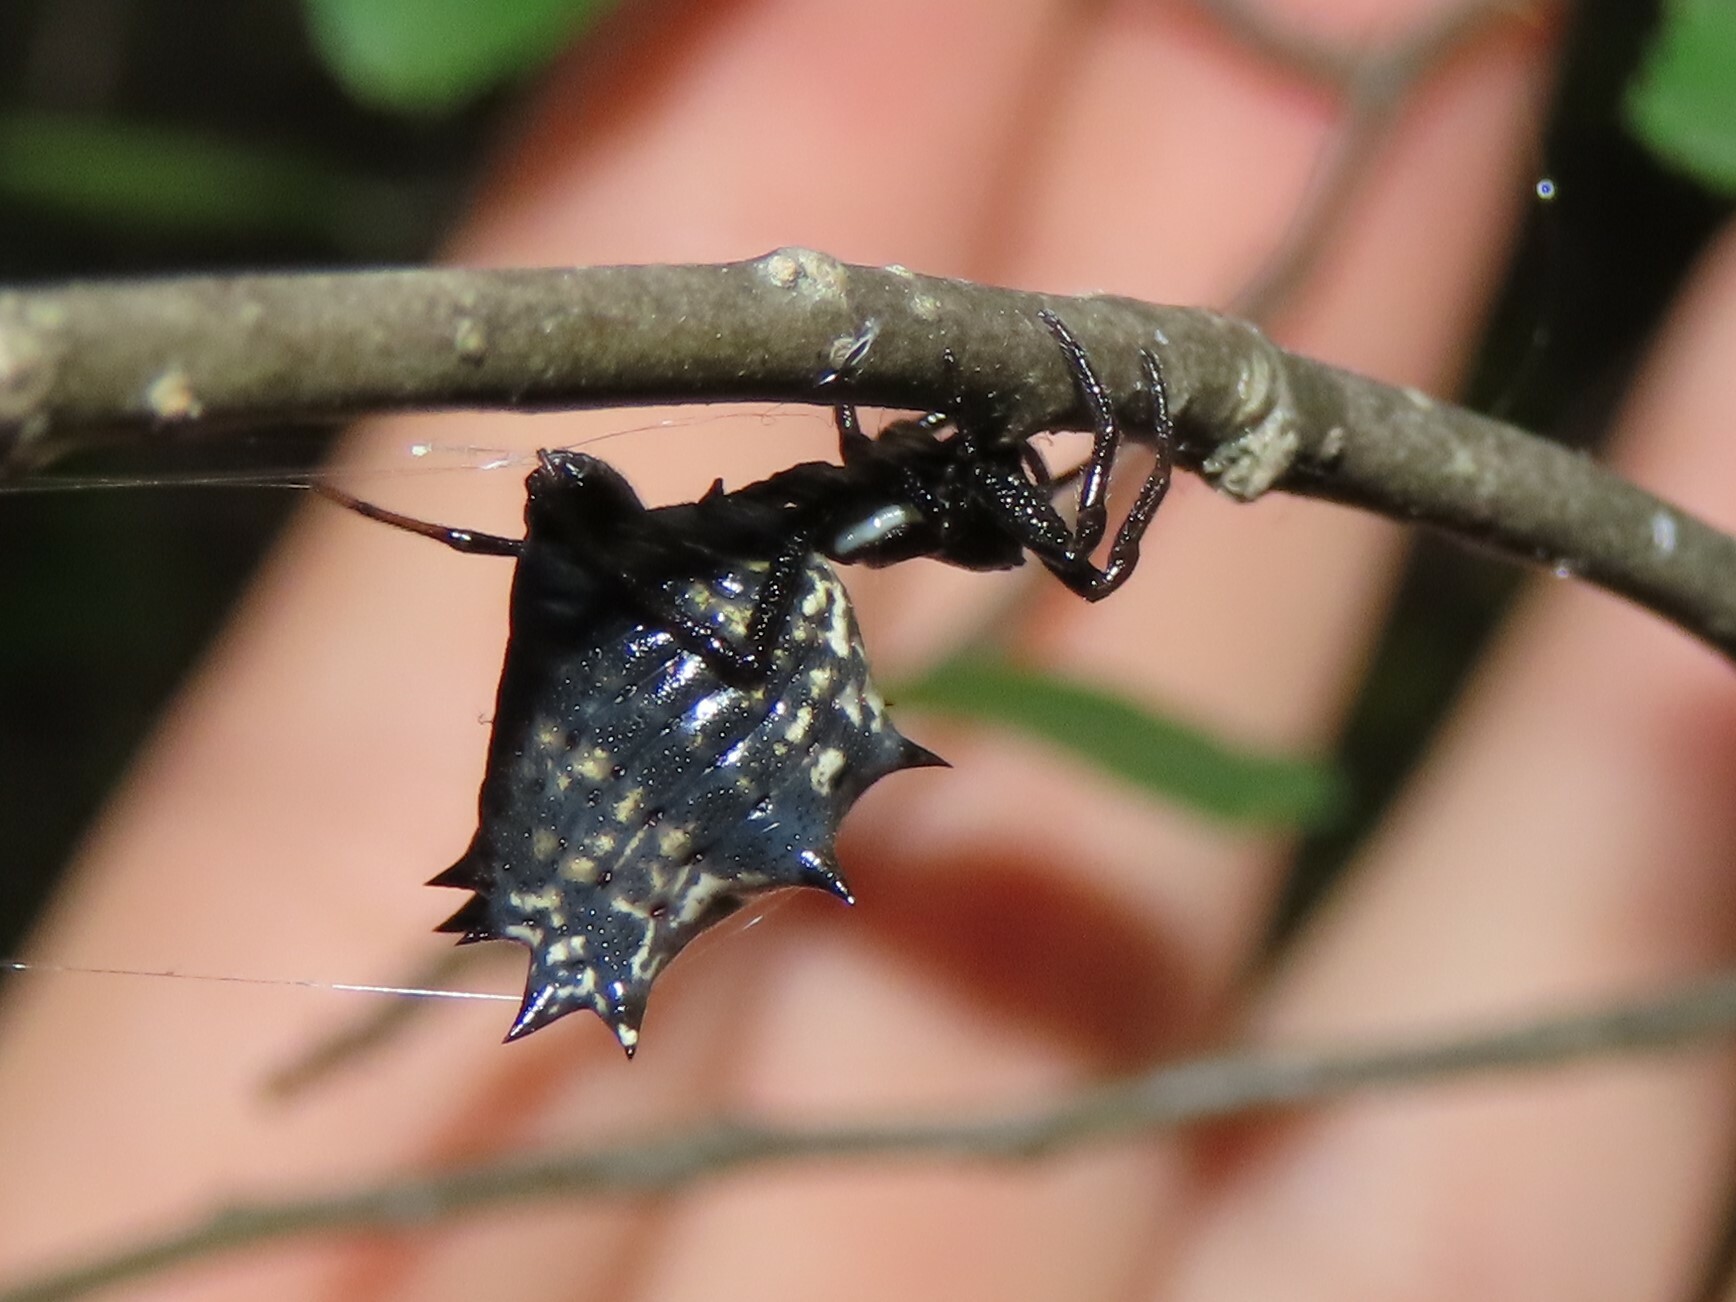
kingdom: Animalia
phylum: Arthropoda
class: Arachnida
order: Araneae
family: Araneidae
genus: Micrathena
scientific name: Micrathena gracilis
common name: Orb weavers
